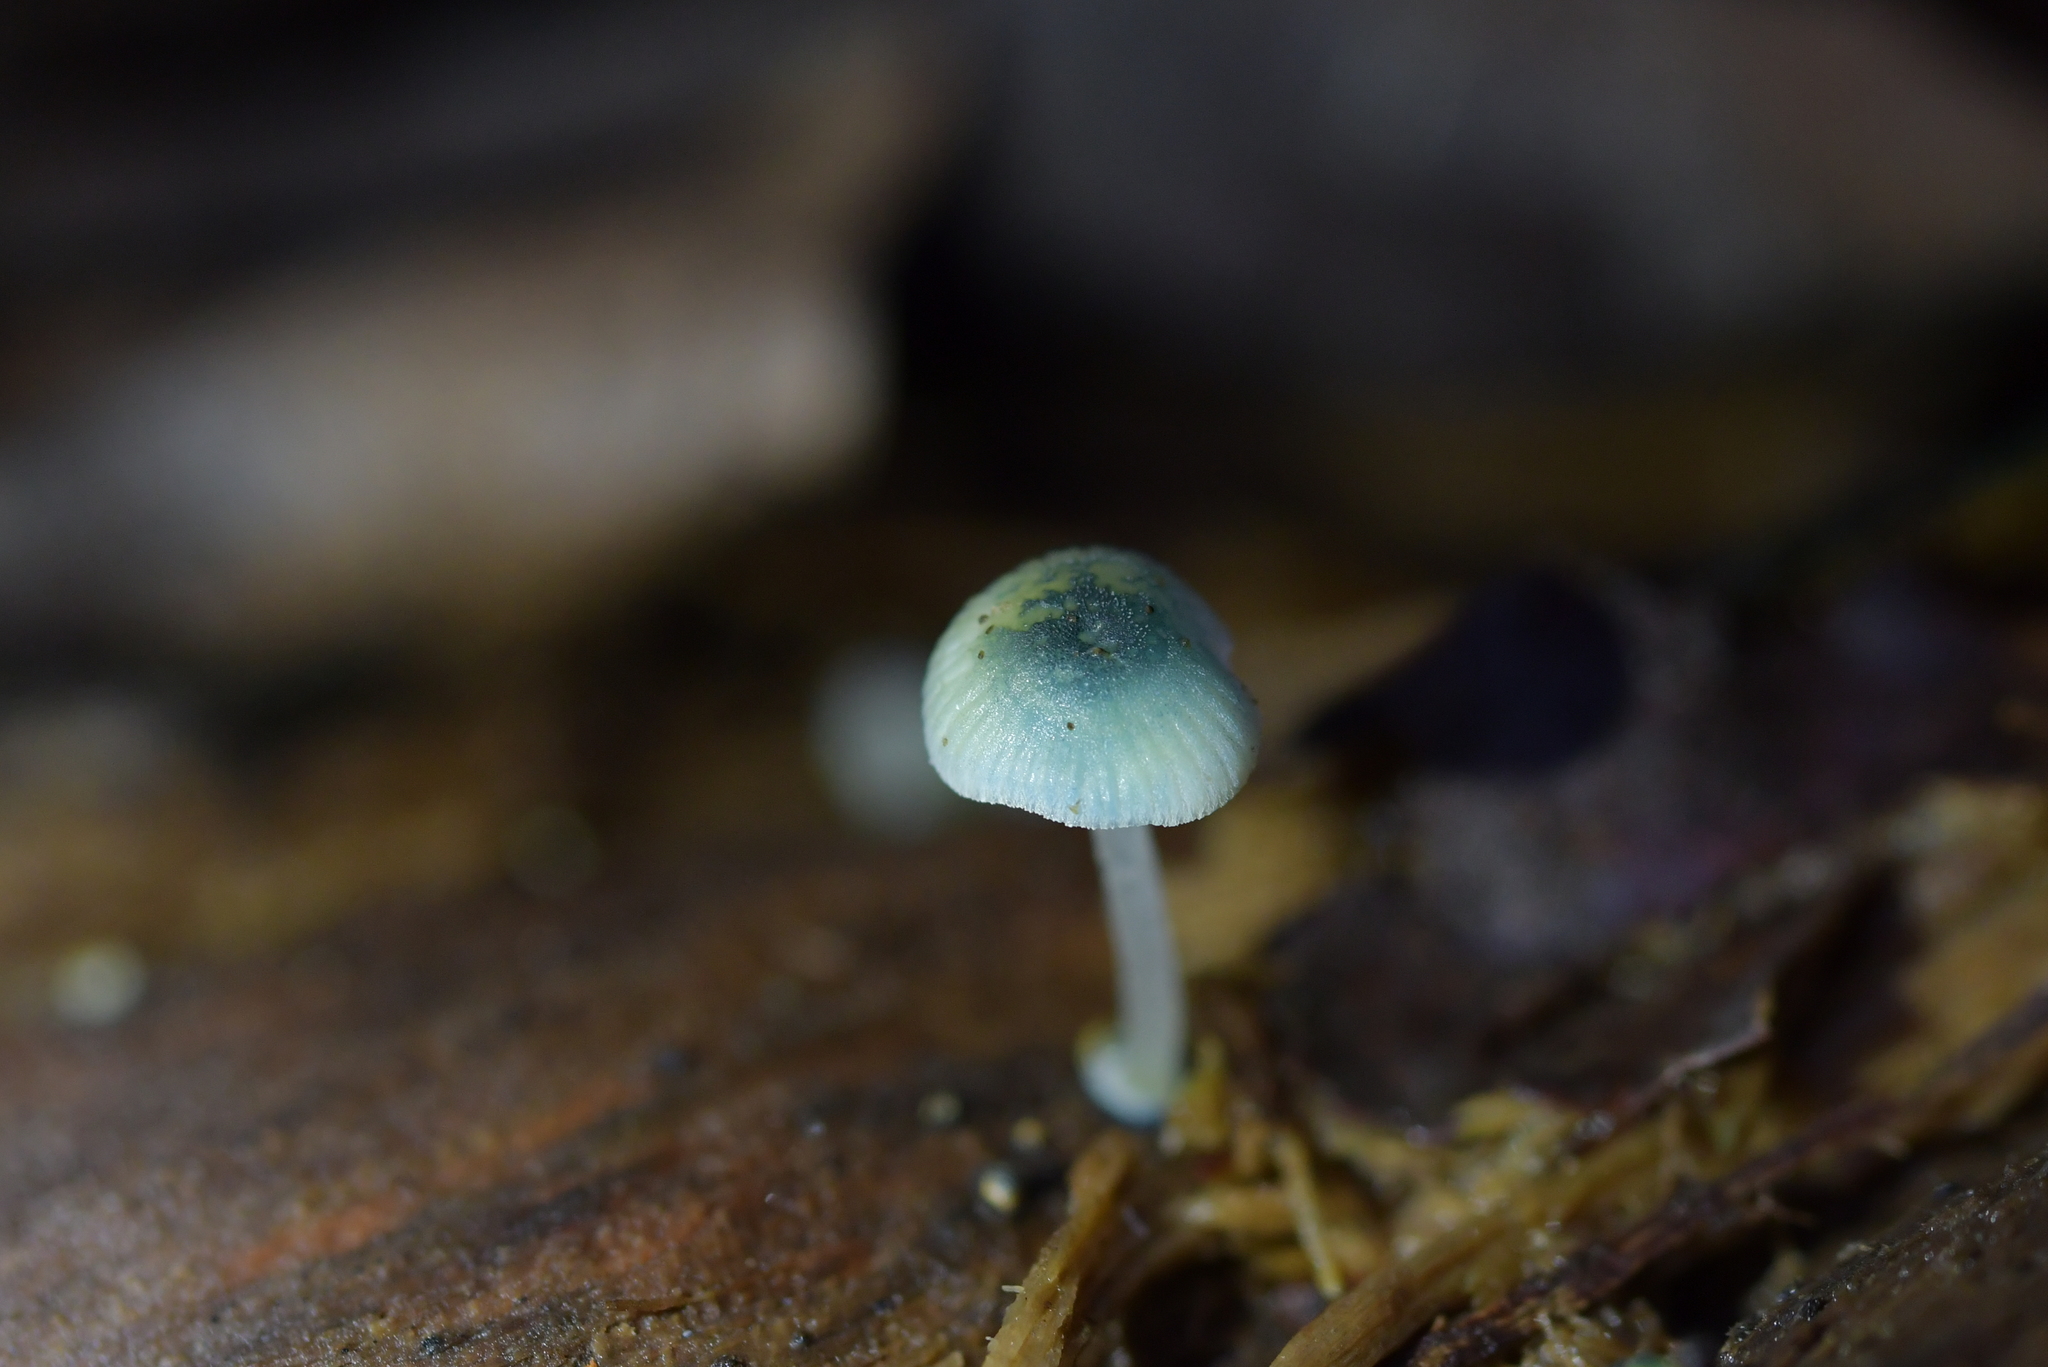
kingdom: Fungi
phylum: Basidiomycota
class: Agaricomycetes
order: Agaricales
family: Mycenaceae
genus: Mycena
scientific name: Mycena interrupta
